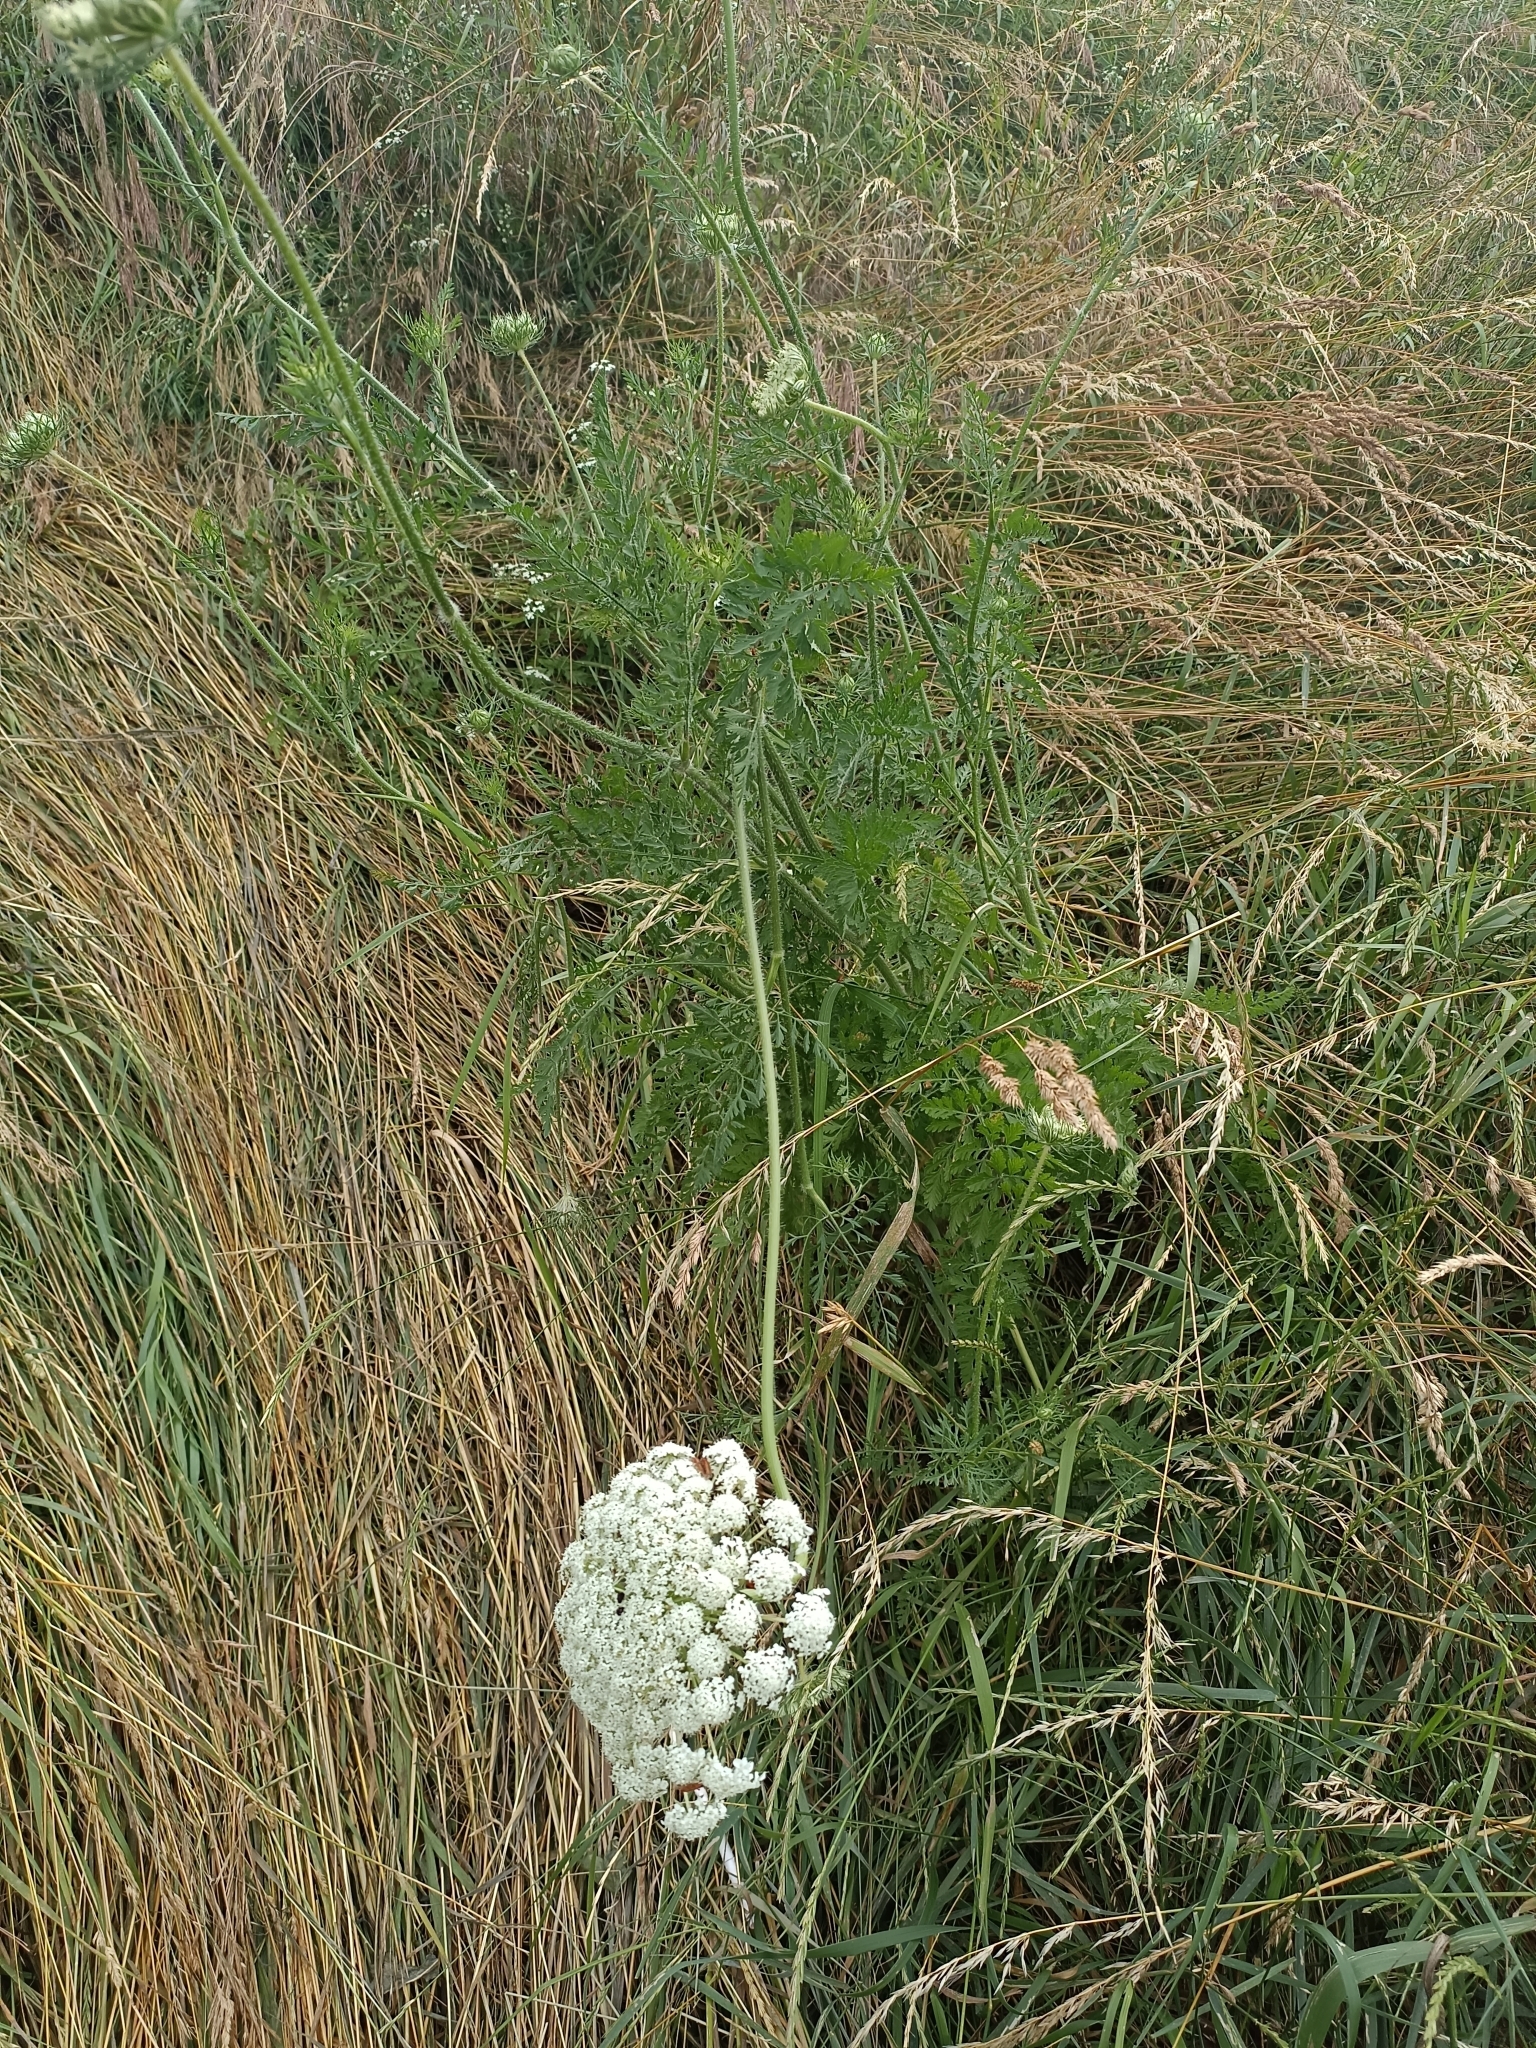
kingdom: Plantae
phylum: Tracheophyta
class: Magnoliopsida
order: Apiales
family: Apiaceae
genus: Daucus
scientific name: Daucus carota
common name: Wild carrot
